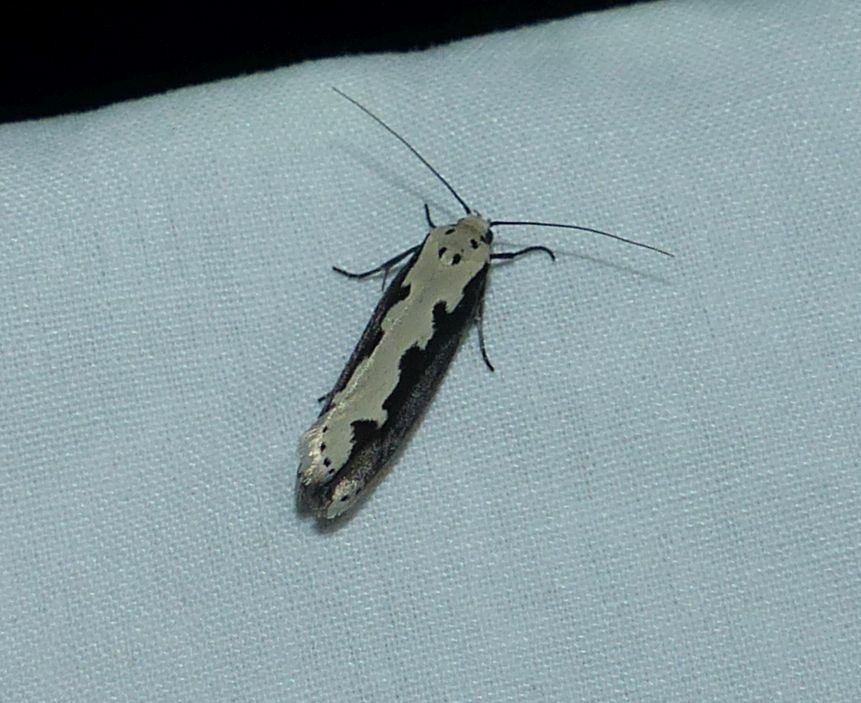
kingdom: Animalia
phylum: Arthropoda
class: Insecta
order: Lepidoptera
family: Ethmiidae
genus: Ethmia
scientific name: Ethmia bipunctella
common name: Bordered ermel
